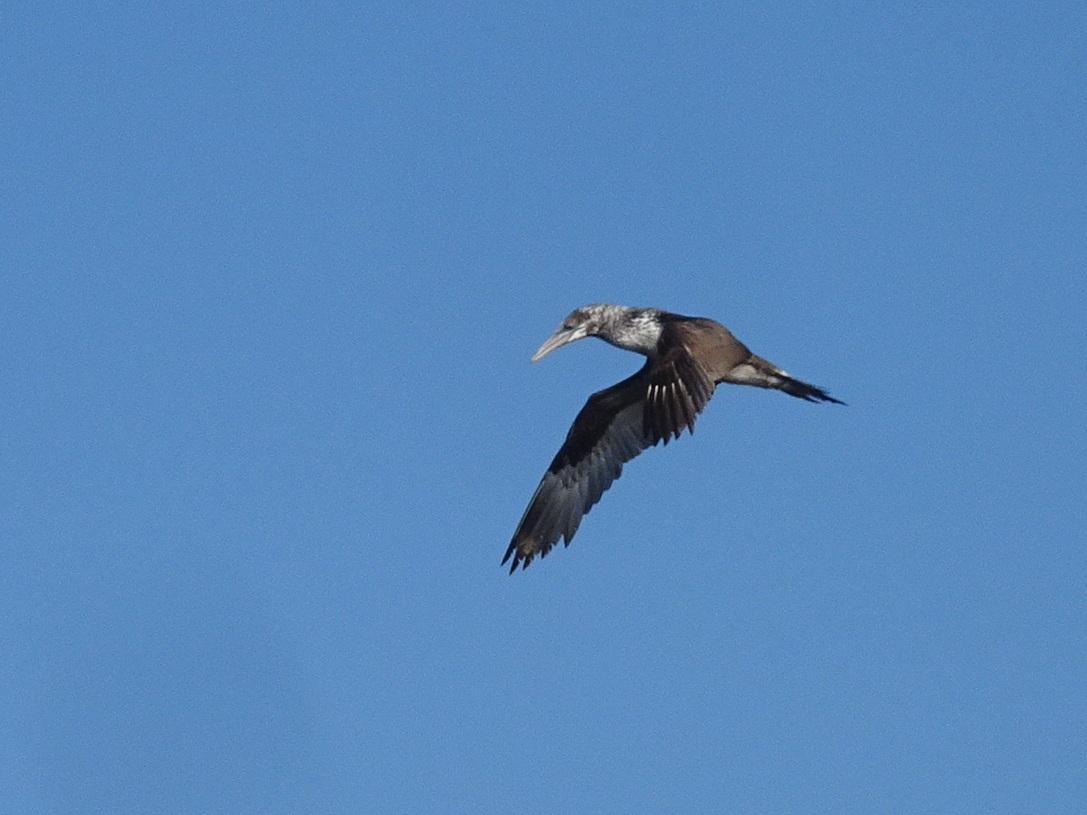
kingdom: Animalia
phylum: Chordata
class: Aves
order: Suliformes
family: Sulidae
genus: Morus
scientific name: Morus bassanus
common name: Northern gannet
